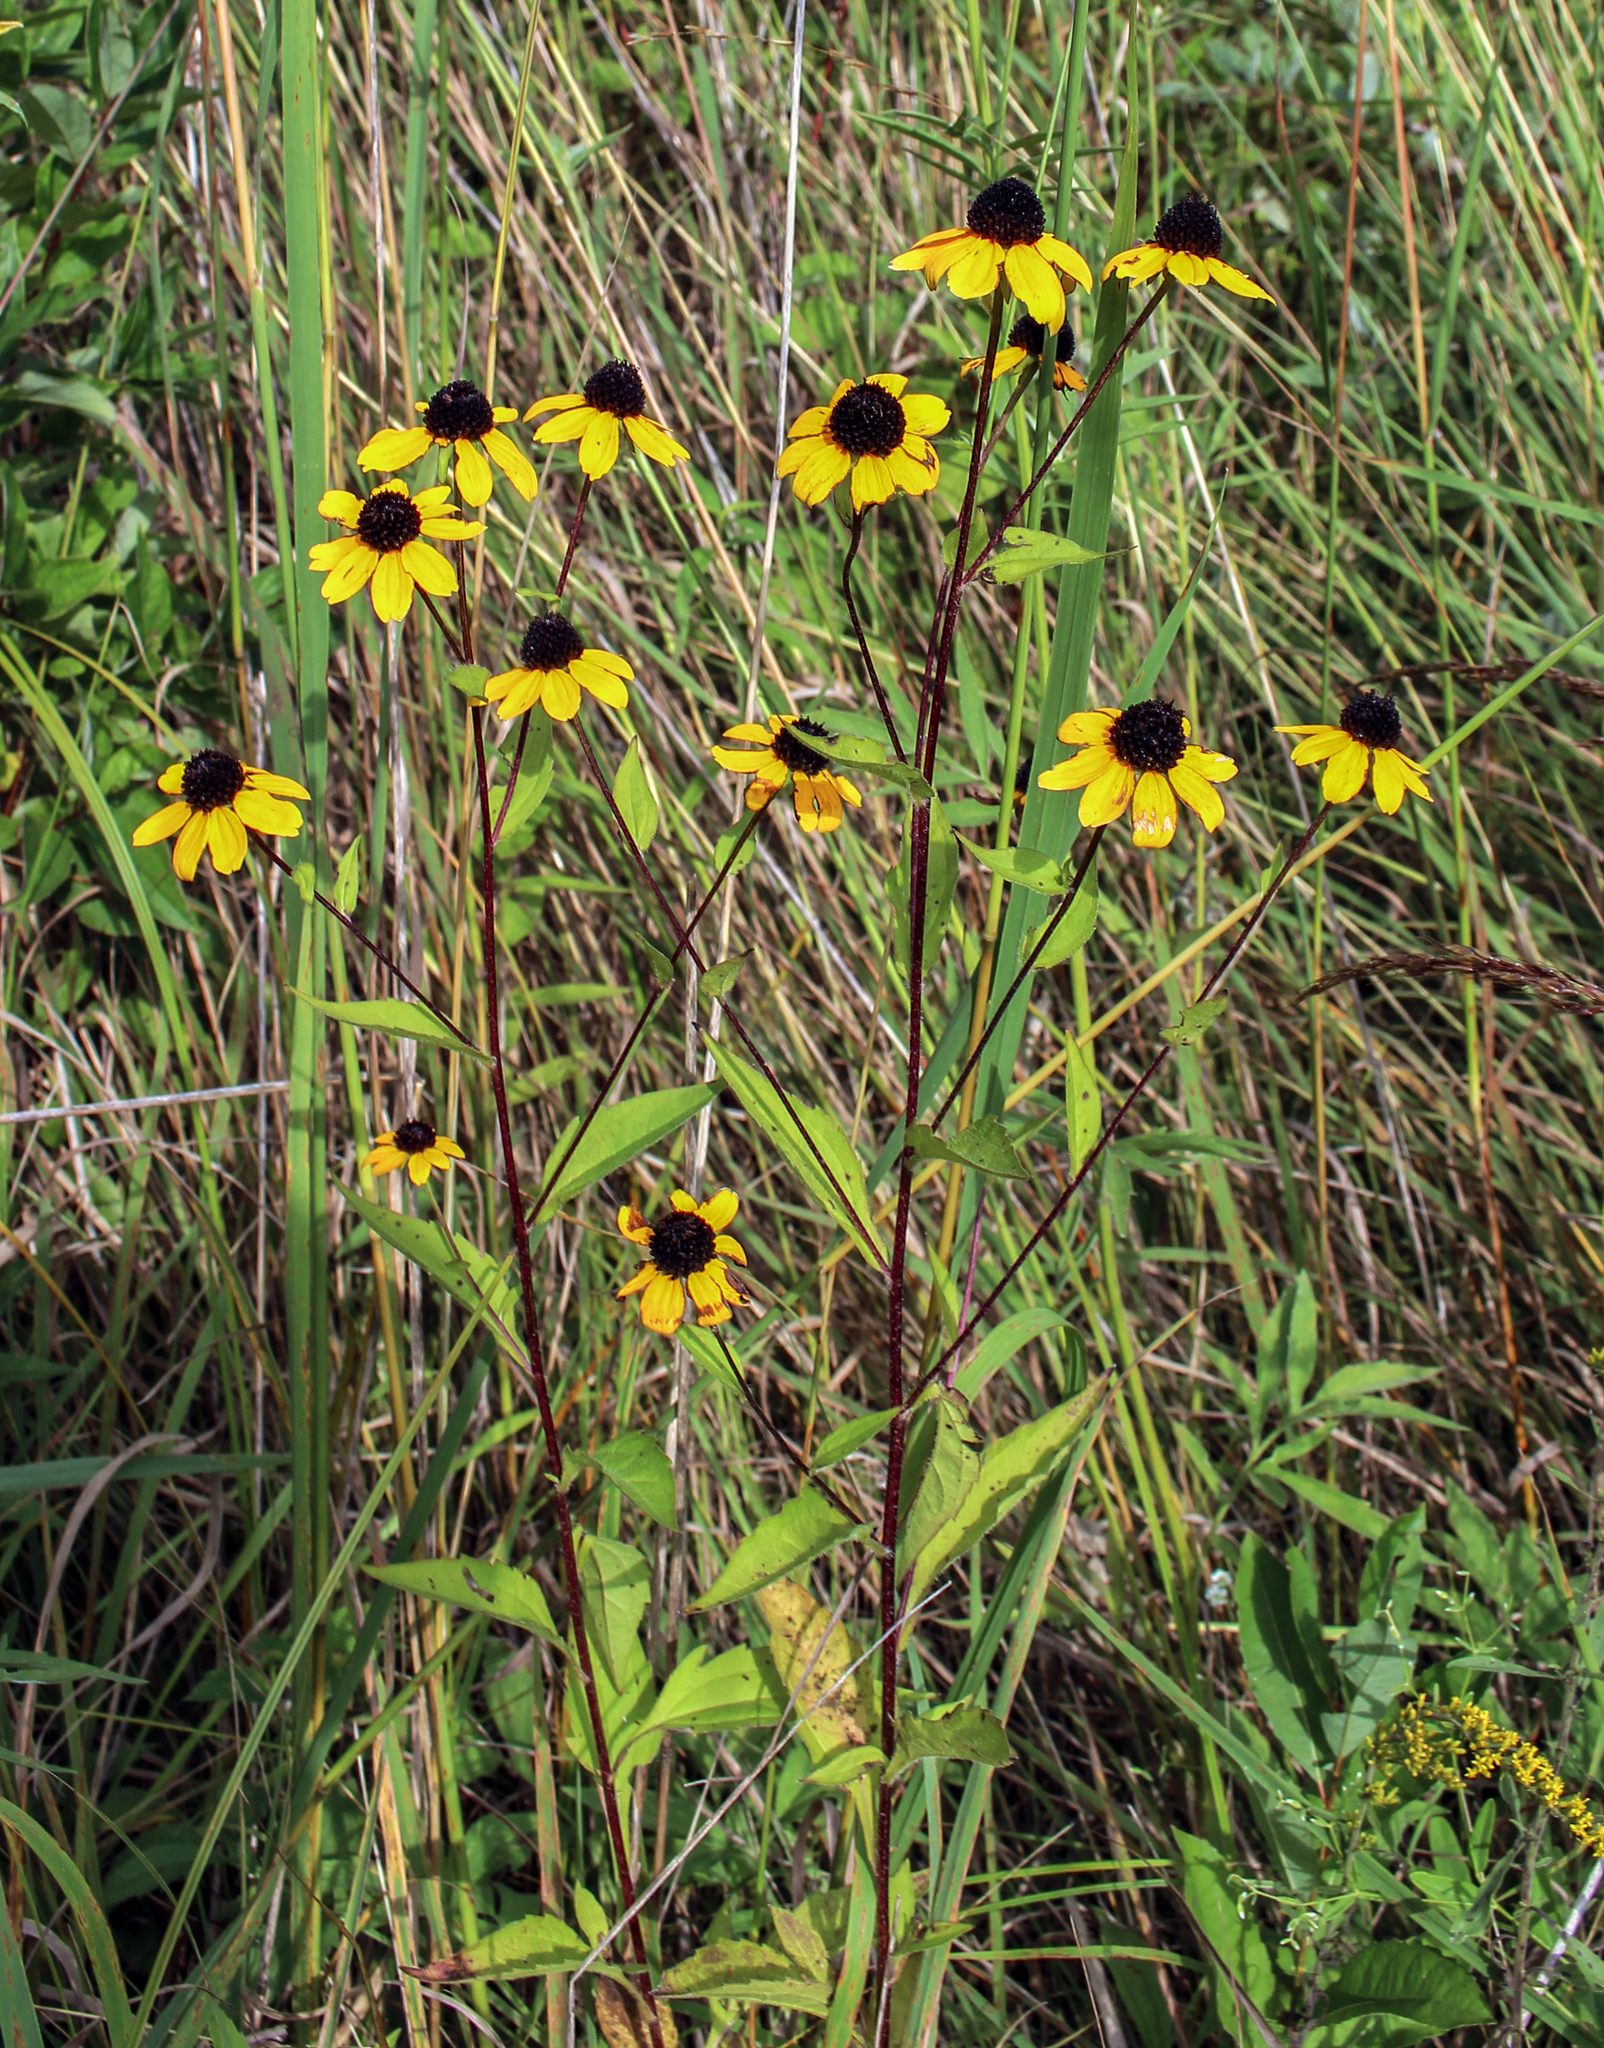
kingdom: Plantae
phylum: Tracheophyta
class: Magnoliopsida
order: Asterales
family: Asteraceae
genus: Rudbeckia
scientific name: Rudbeckia triloba
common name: Thin-leaved coneflower
